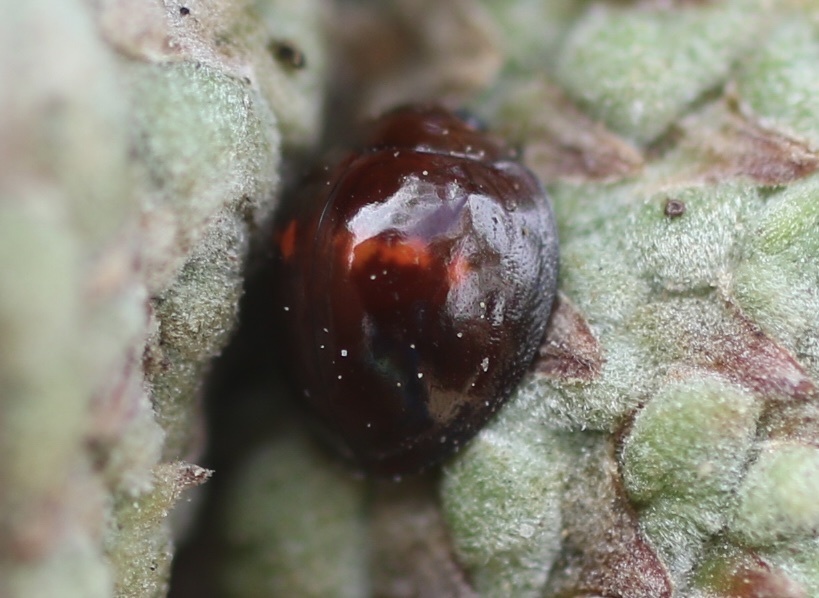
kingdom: Animalia
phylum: Arthropoda
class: Insecta
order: Coleoptera
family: Coccinellidae
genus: Chilocorus
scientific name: Chilocorus bipustulatus
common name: Heather ladybird
